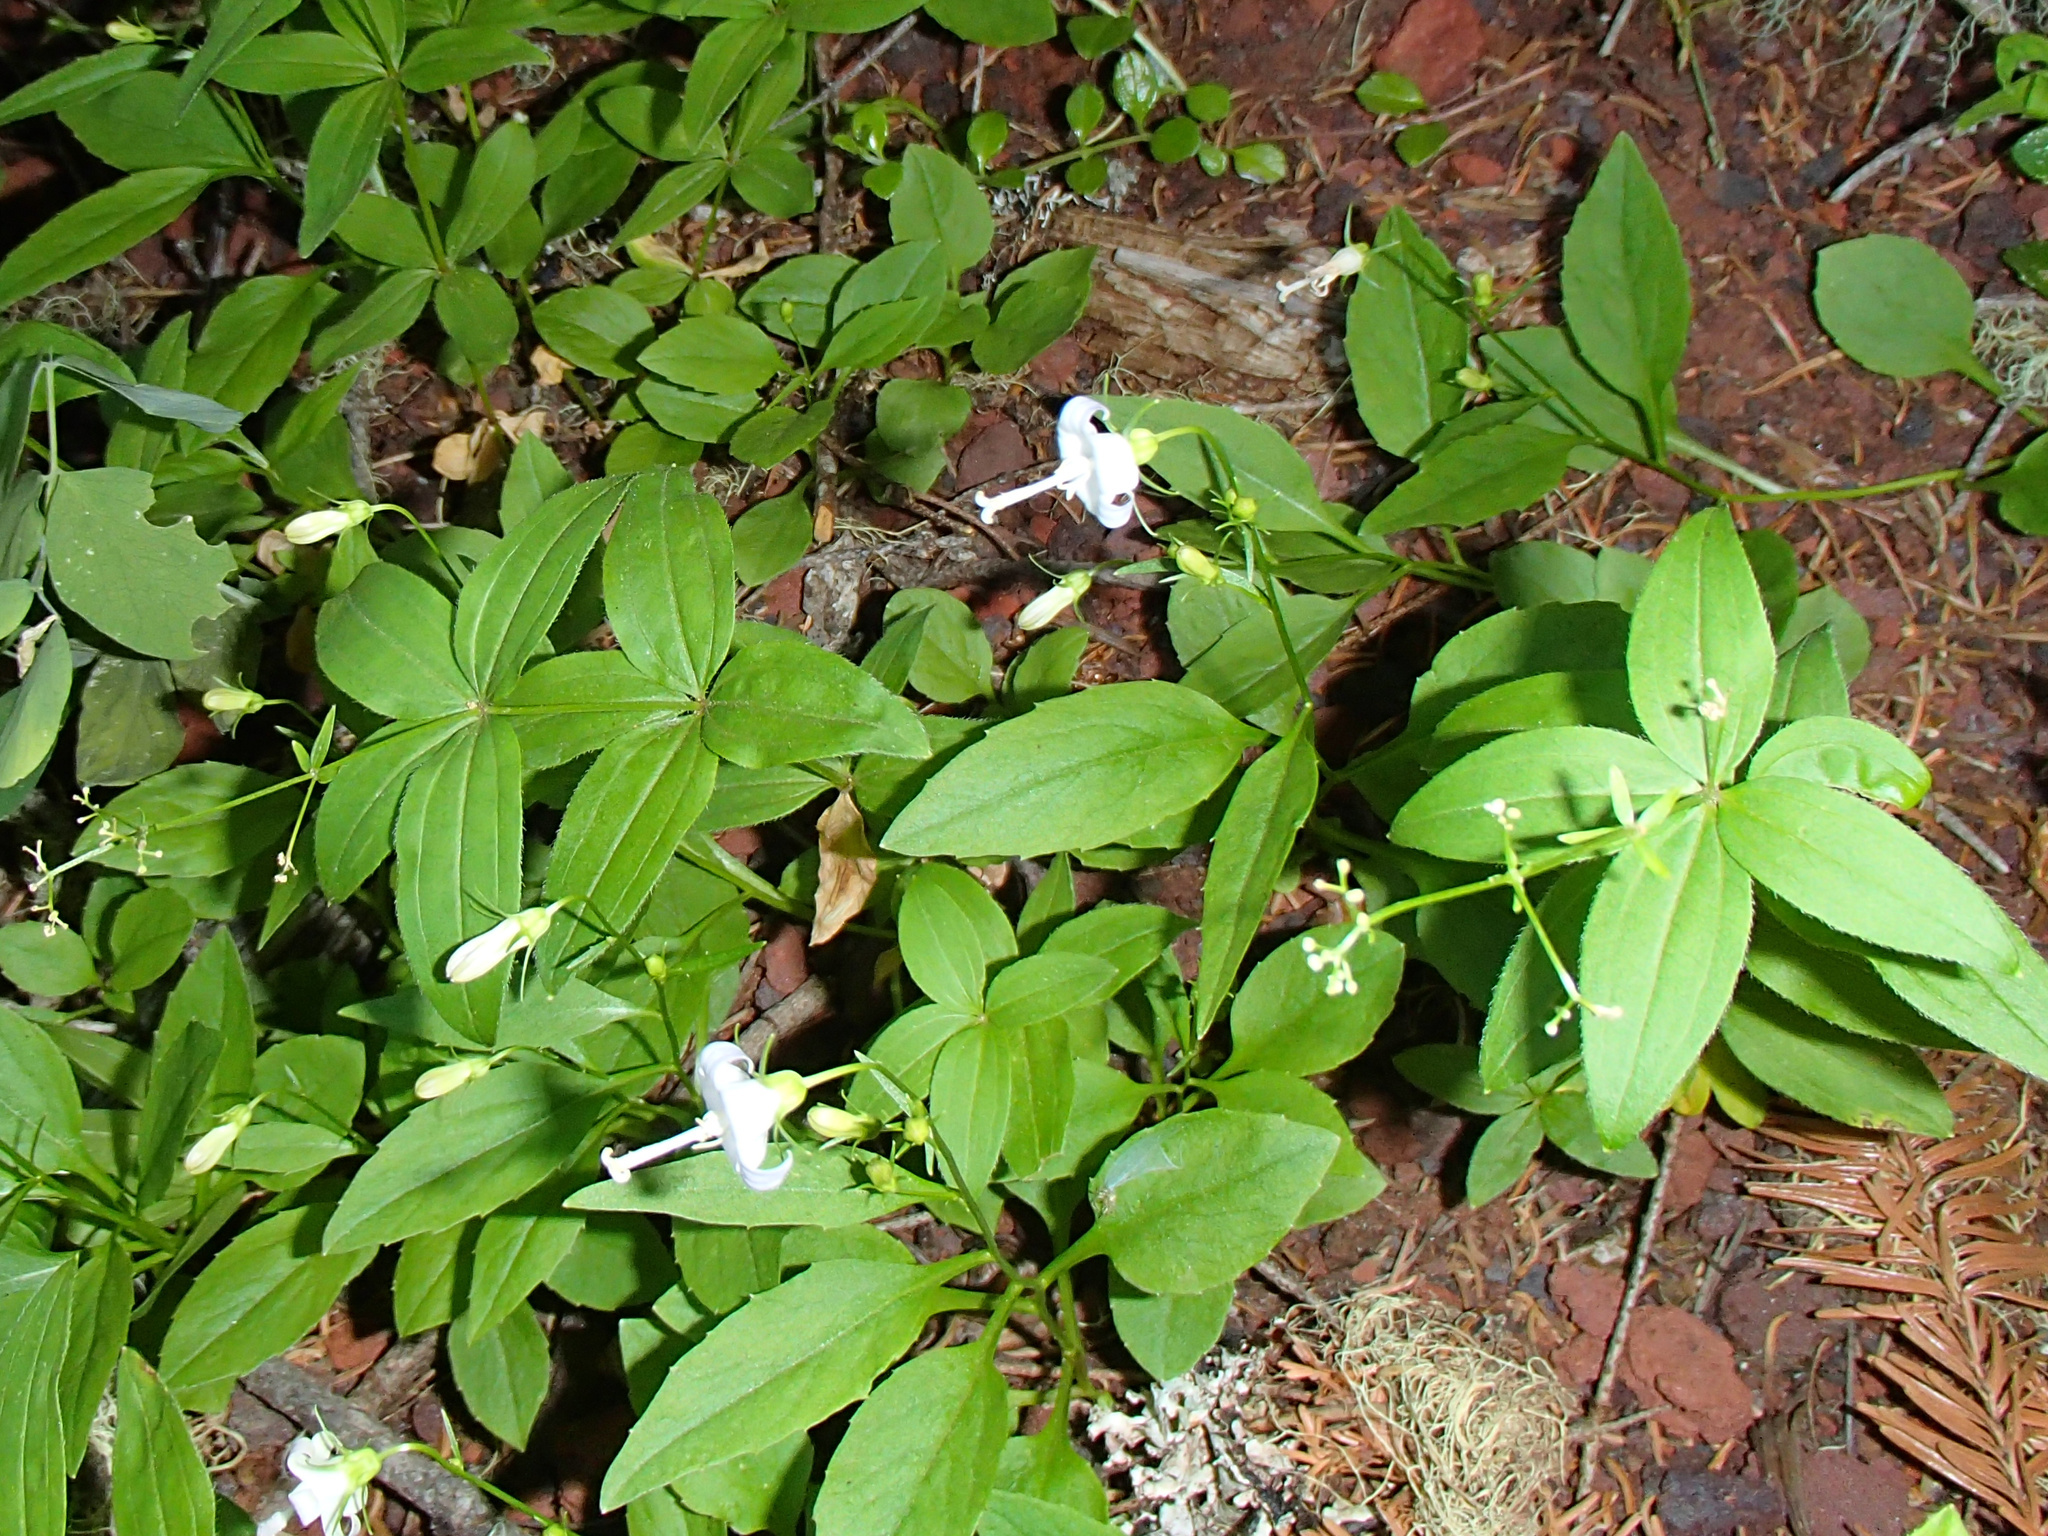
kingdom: Plantae
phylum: Tracheophyta
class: Magnoliopsida
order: Asterales
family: Campanulaceae
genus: Campanula
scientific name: Campanula scouleri
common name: Scouler's harebell
